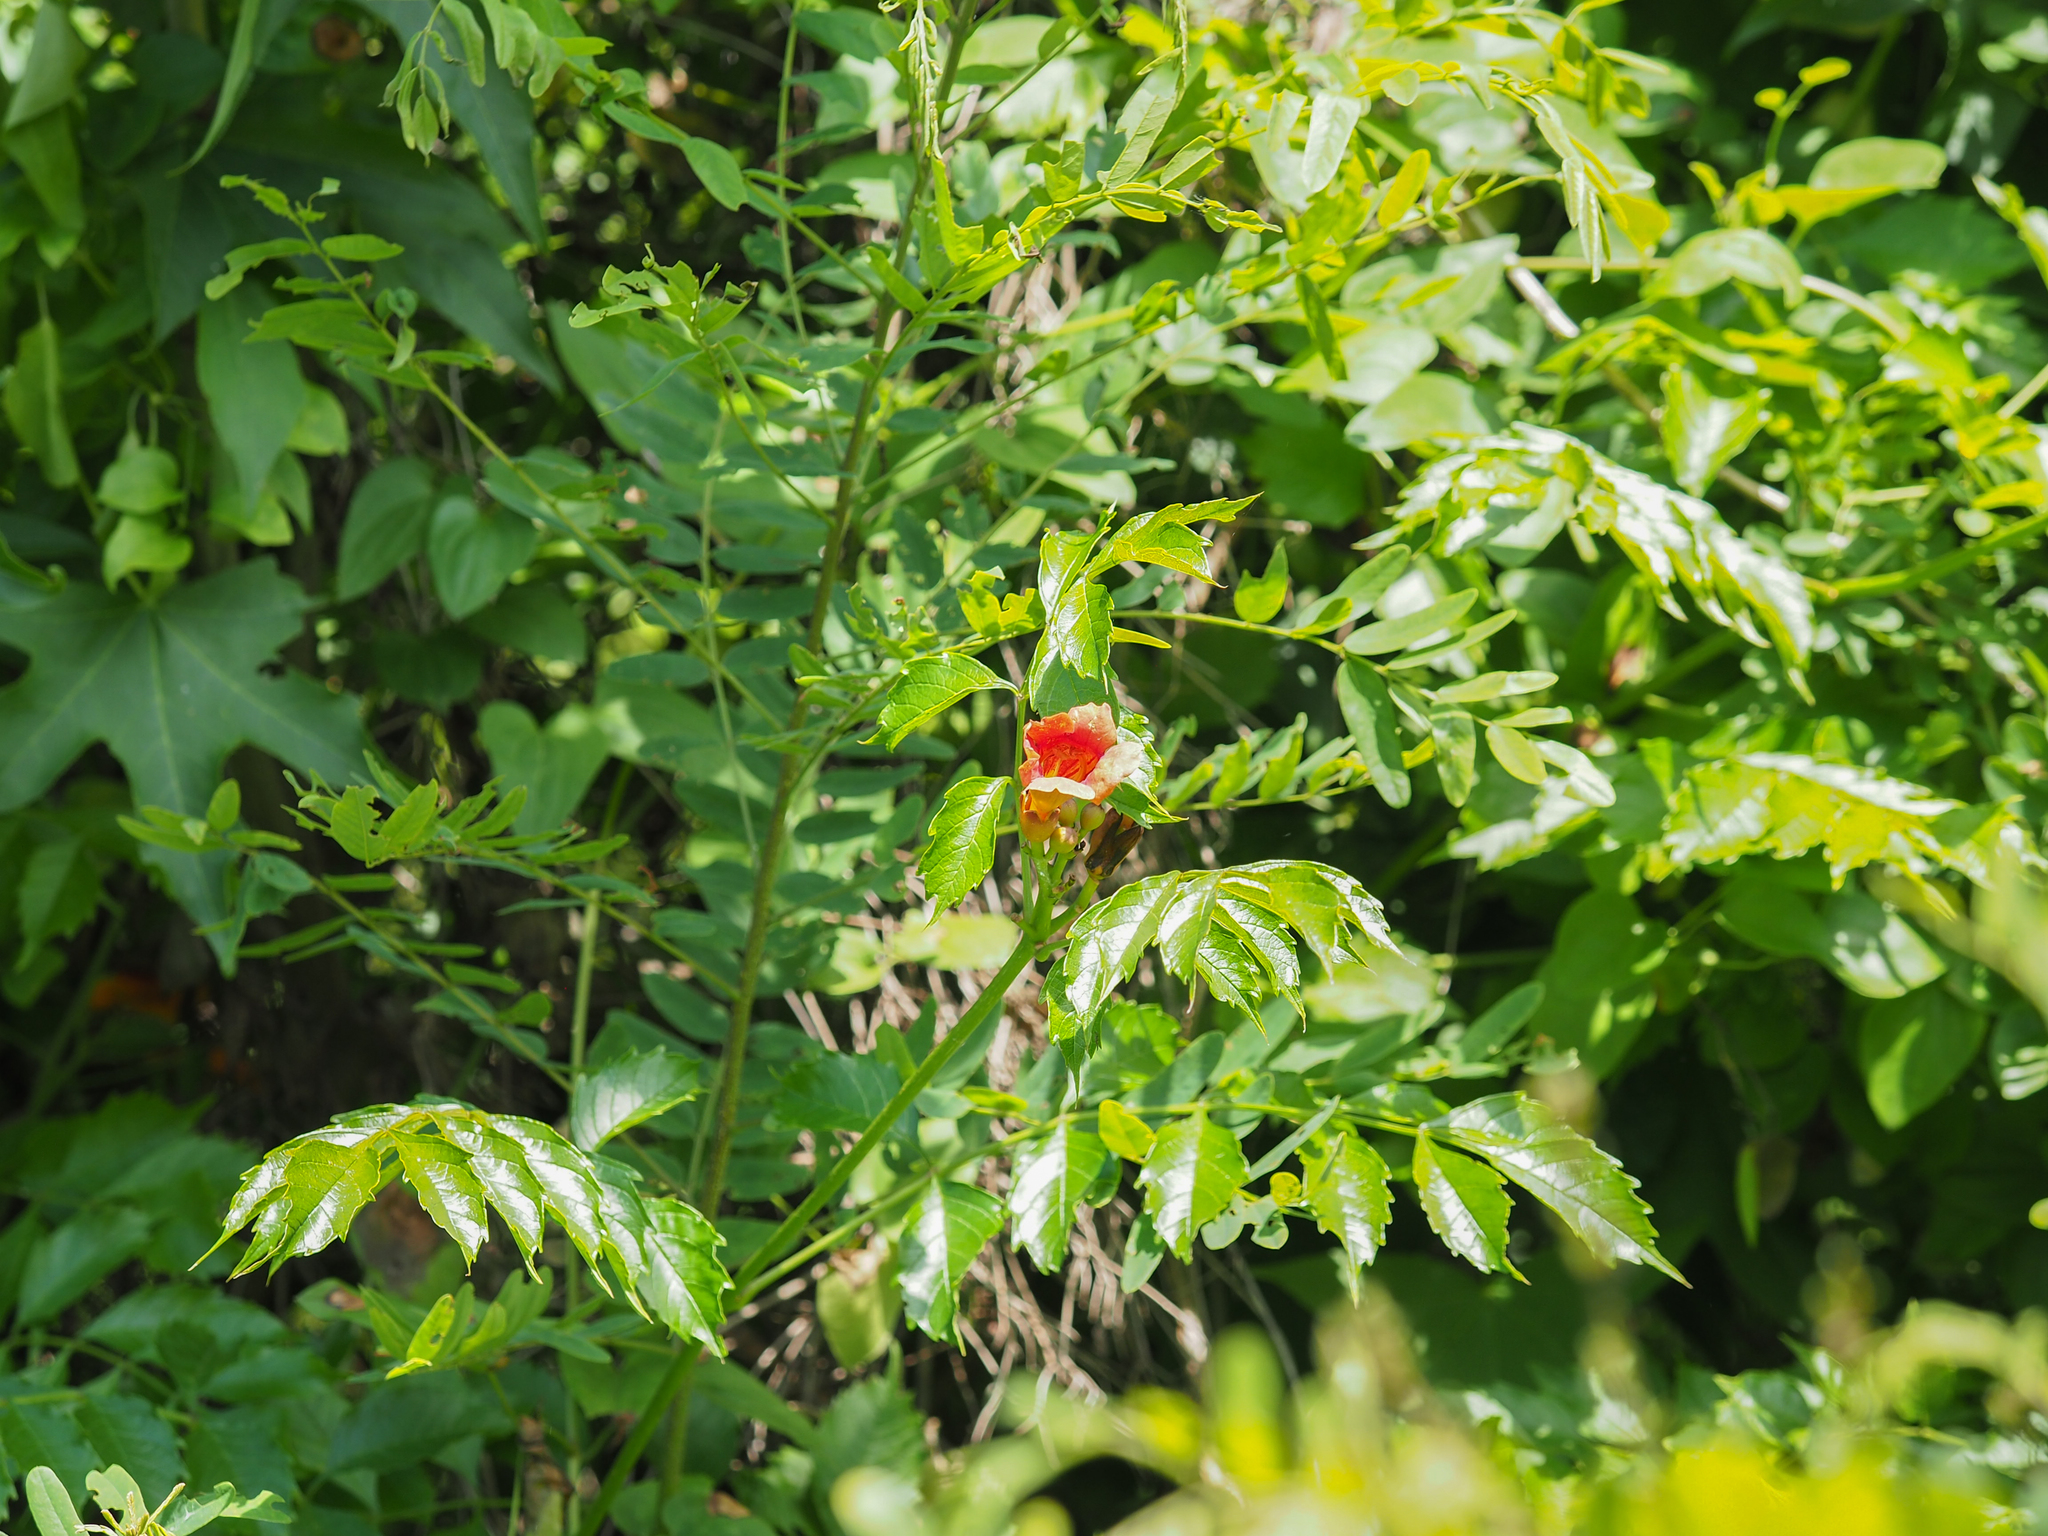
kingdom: Plantae
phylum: Tracheophyta
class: Magnoliopsida
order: Lamiales
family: Bignoniaceae
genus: Campsis
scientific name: Campsis radicans
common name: Trumpet-creeper
